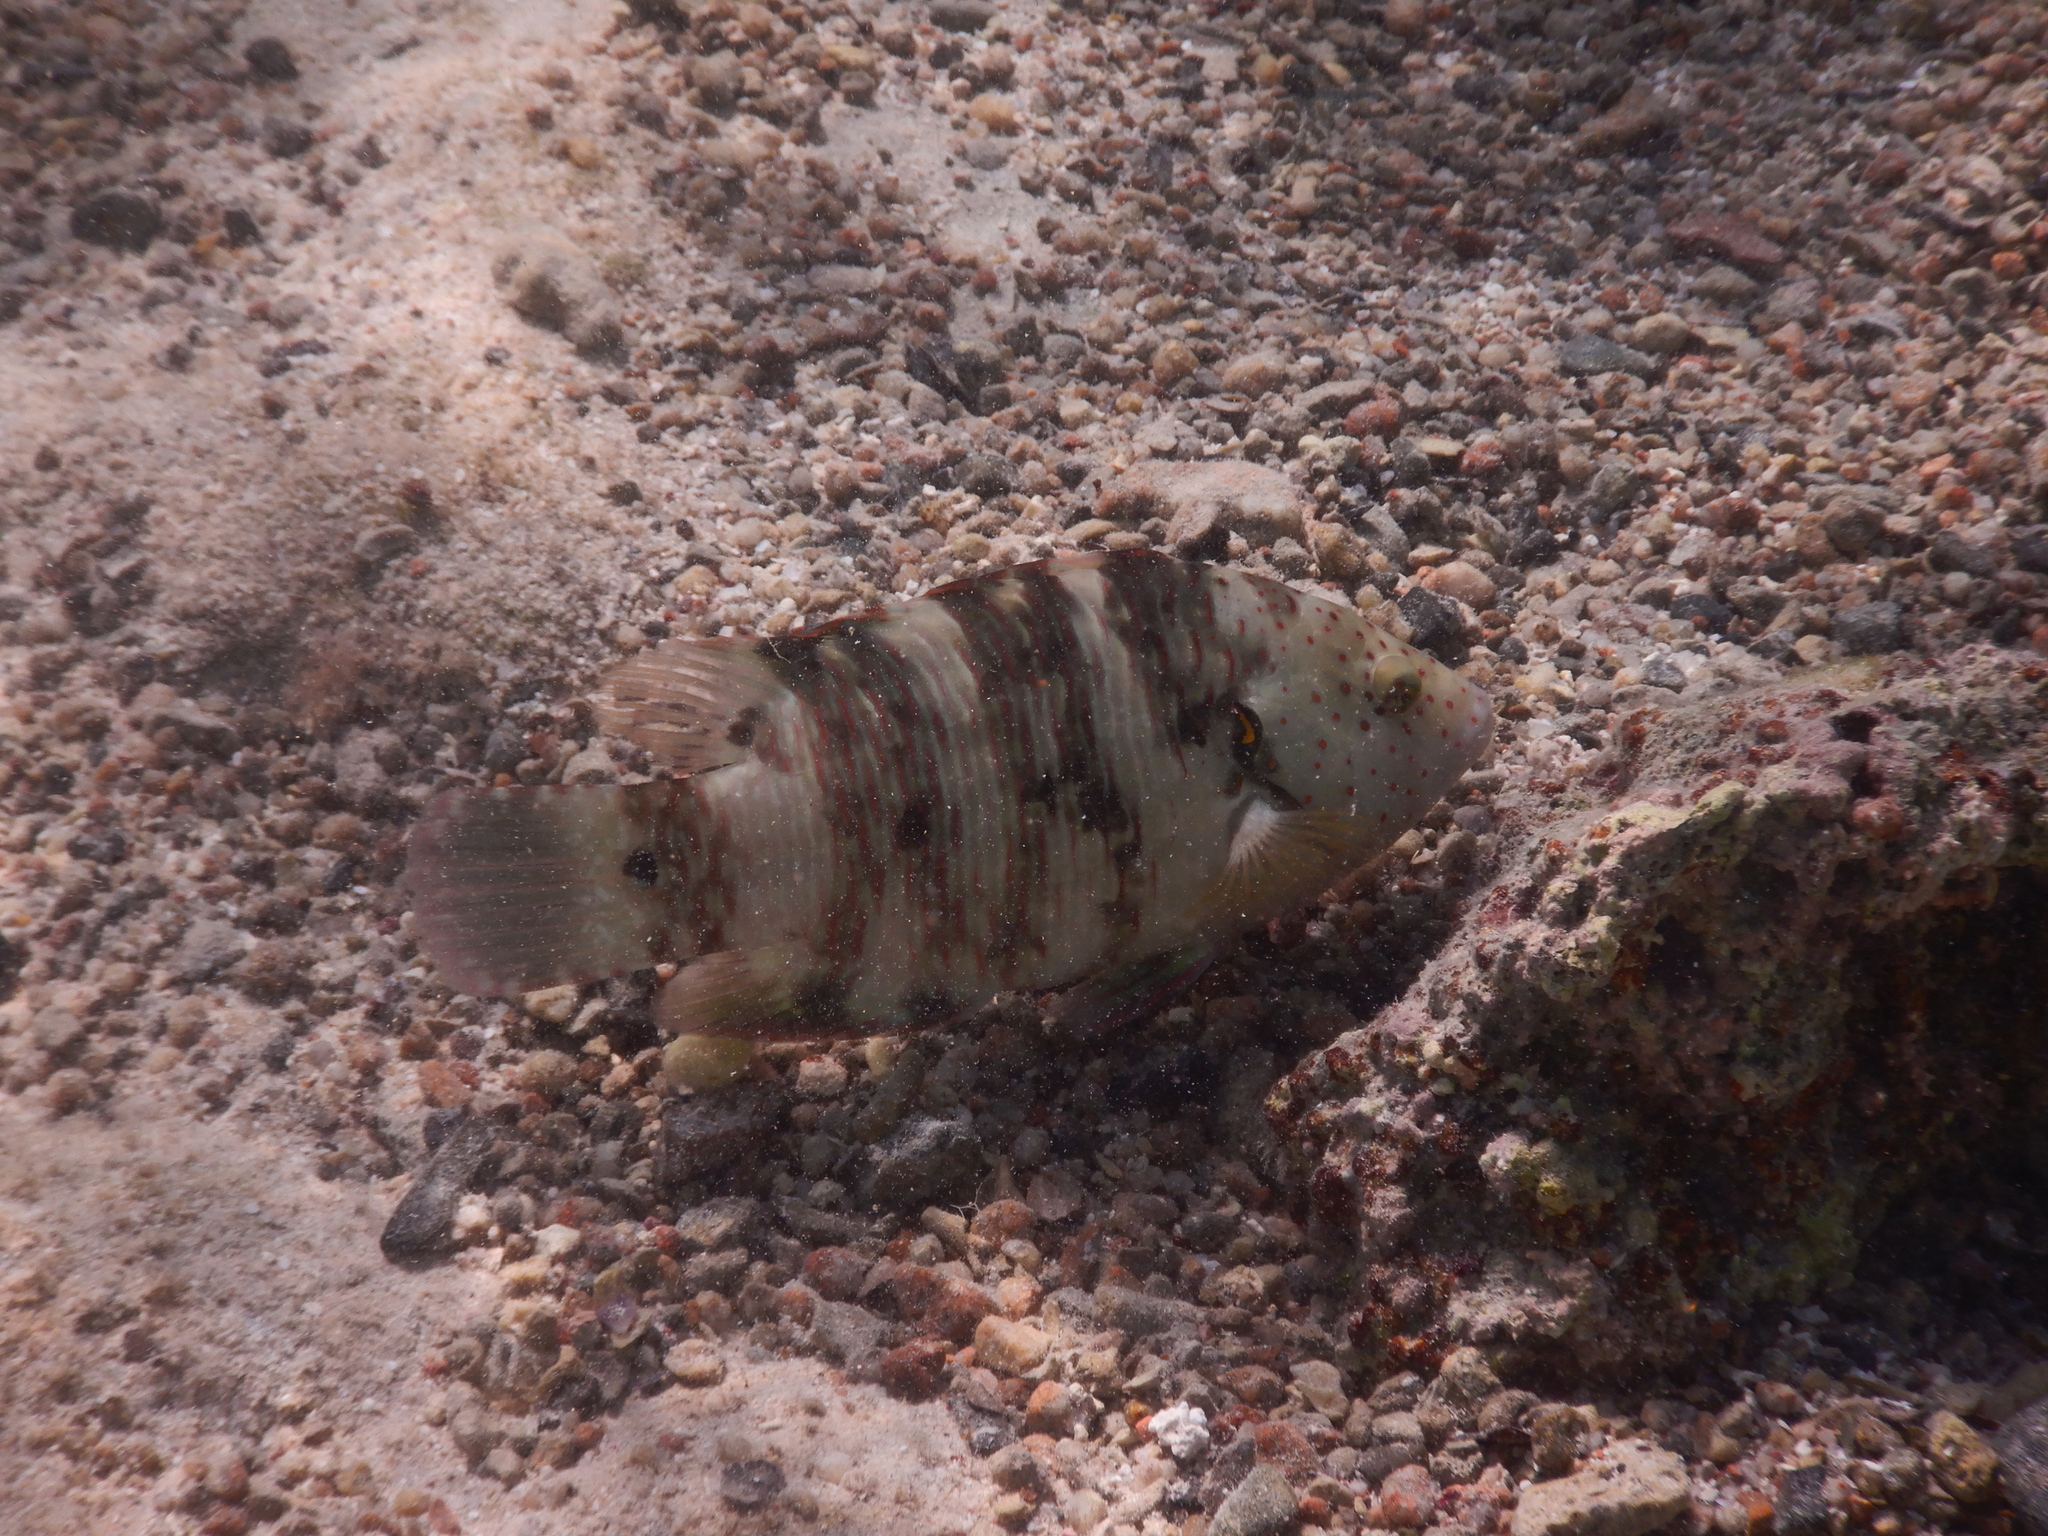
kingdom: Animalia
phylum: Chordata
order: Perciformes
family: Labridae
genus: Cheilinus
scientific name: Cheilinus lunulatus
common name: Broomtail wrasse
